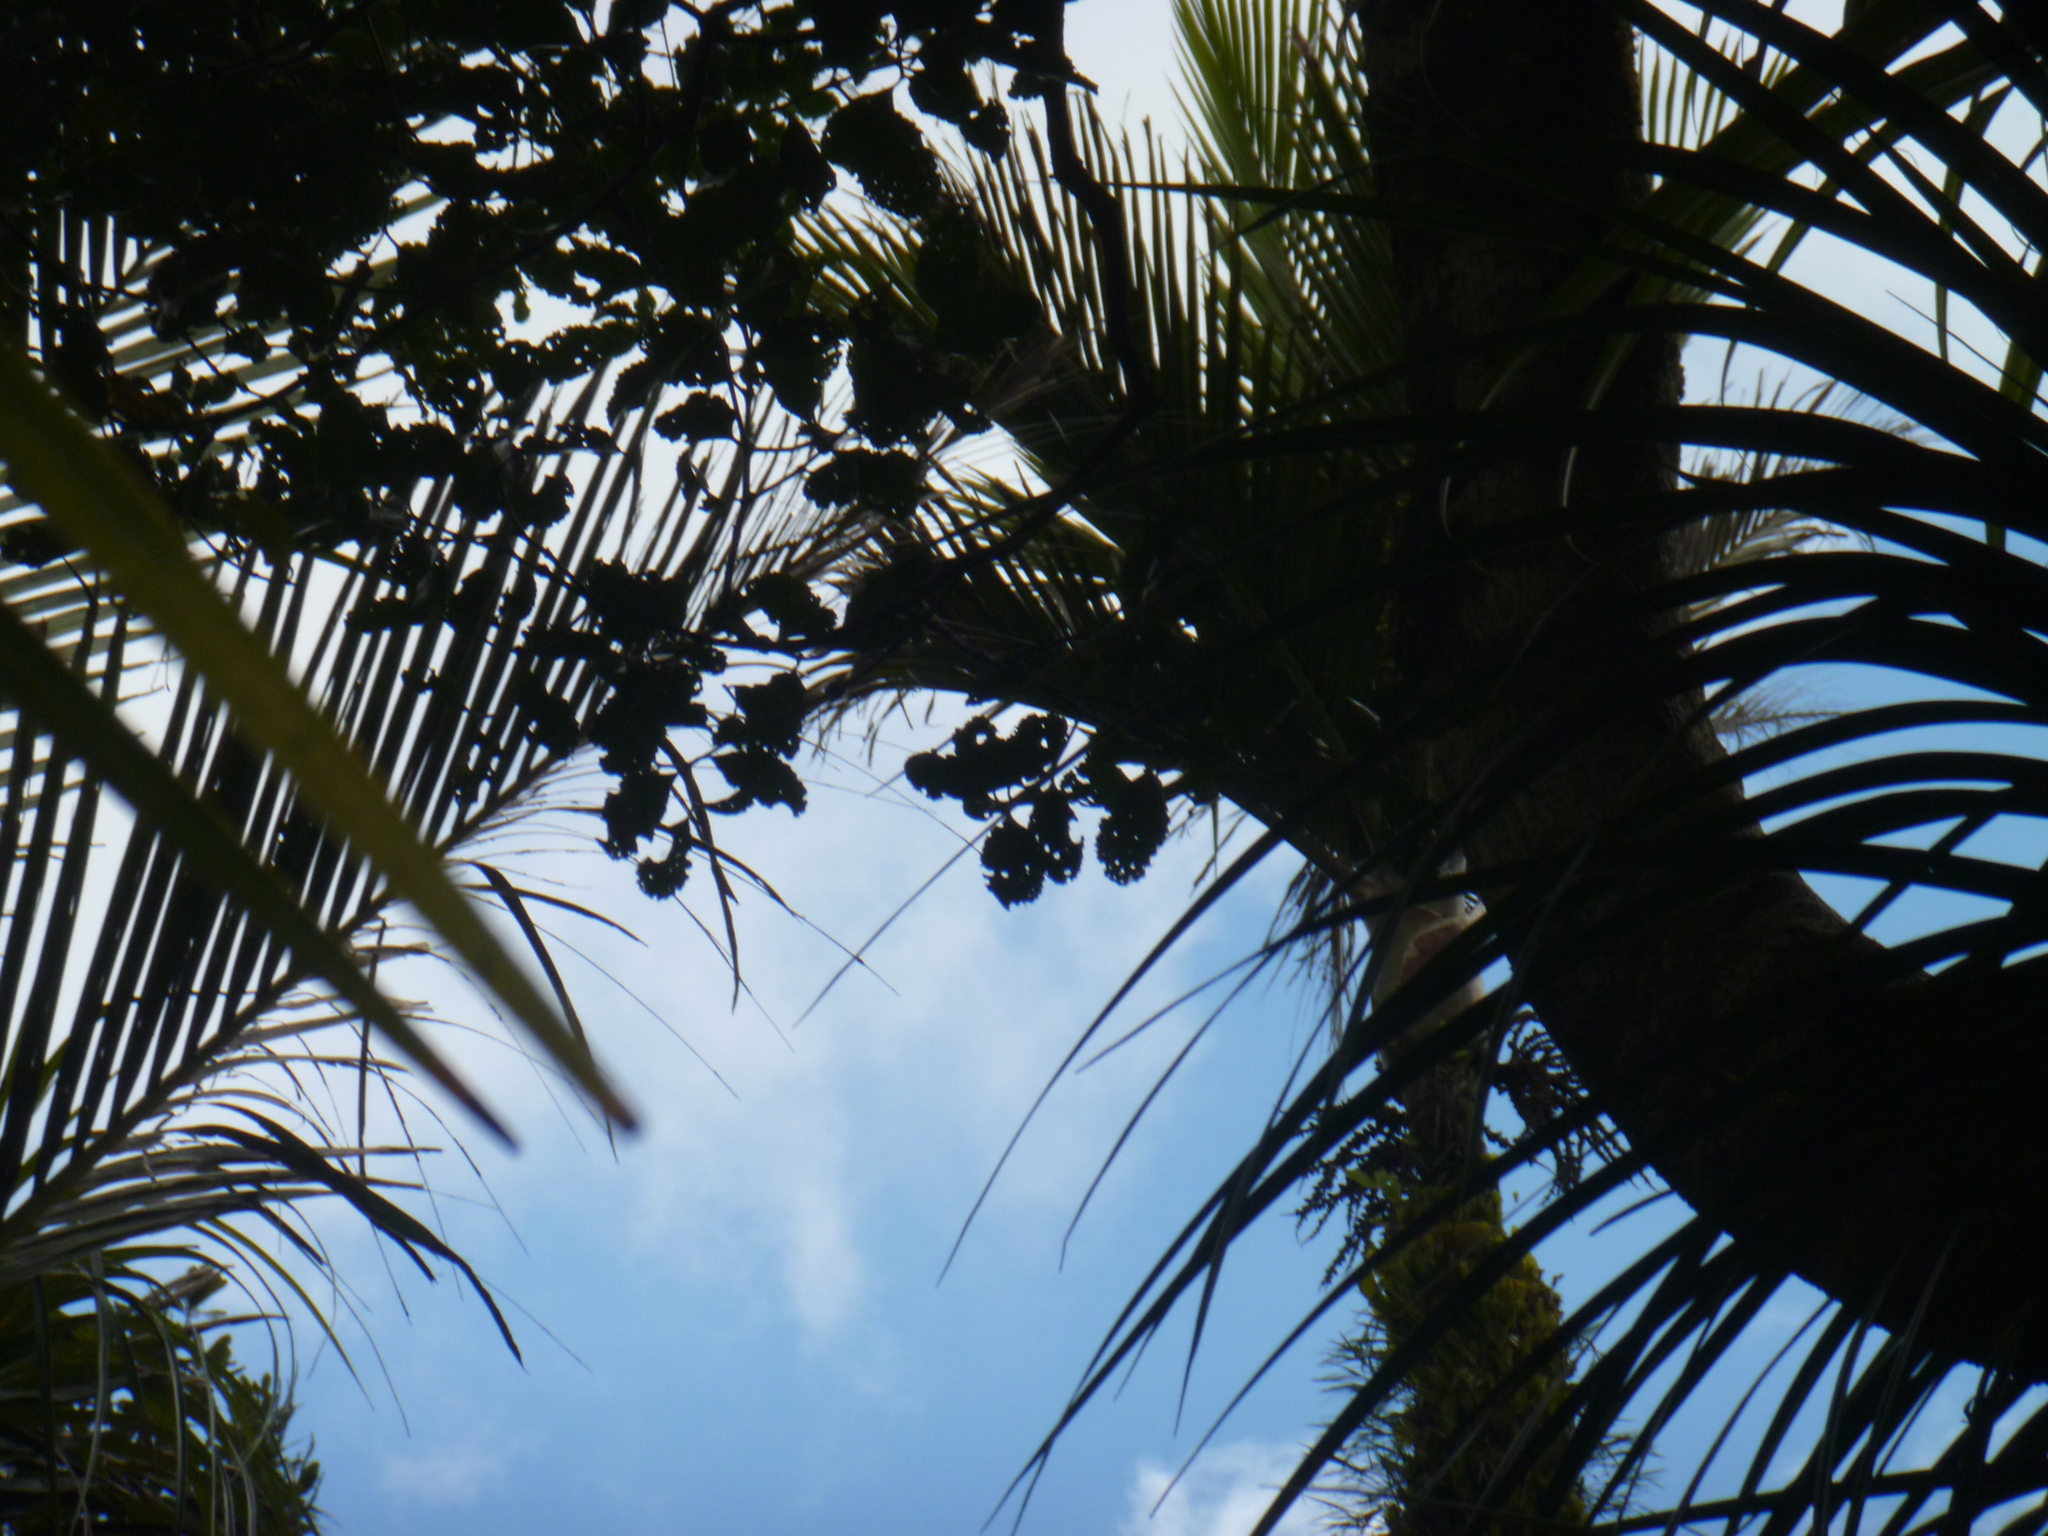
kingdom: Plantae
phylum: Tracheophyta
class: Magnoliopsida
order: Laurales
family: Atherospermataceae
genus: Laurelia
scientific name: Laurelia novae-zelandiae
